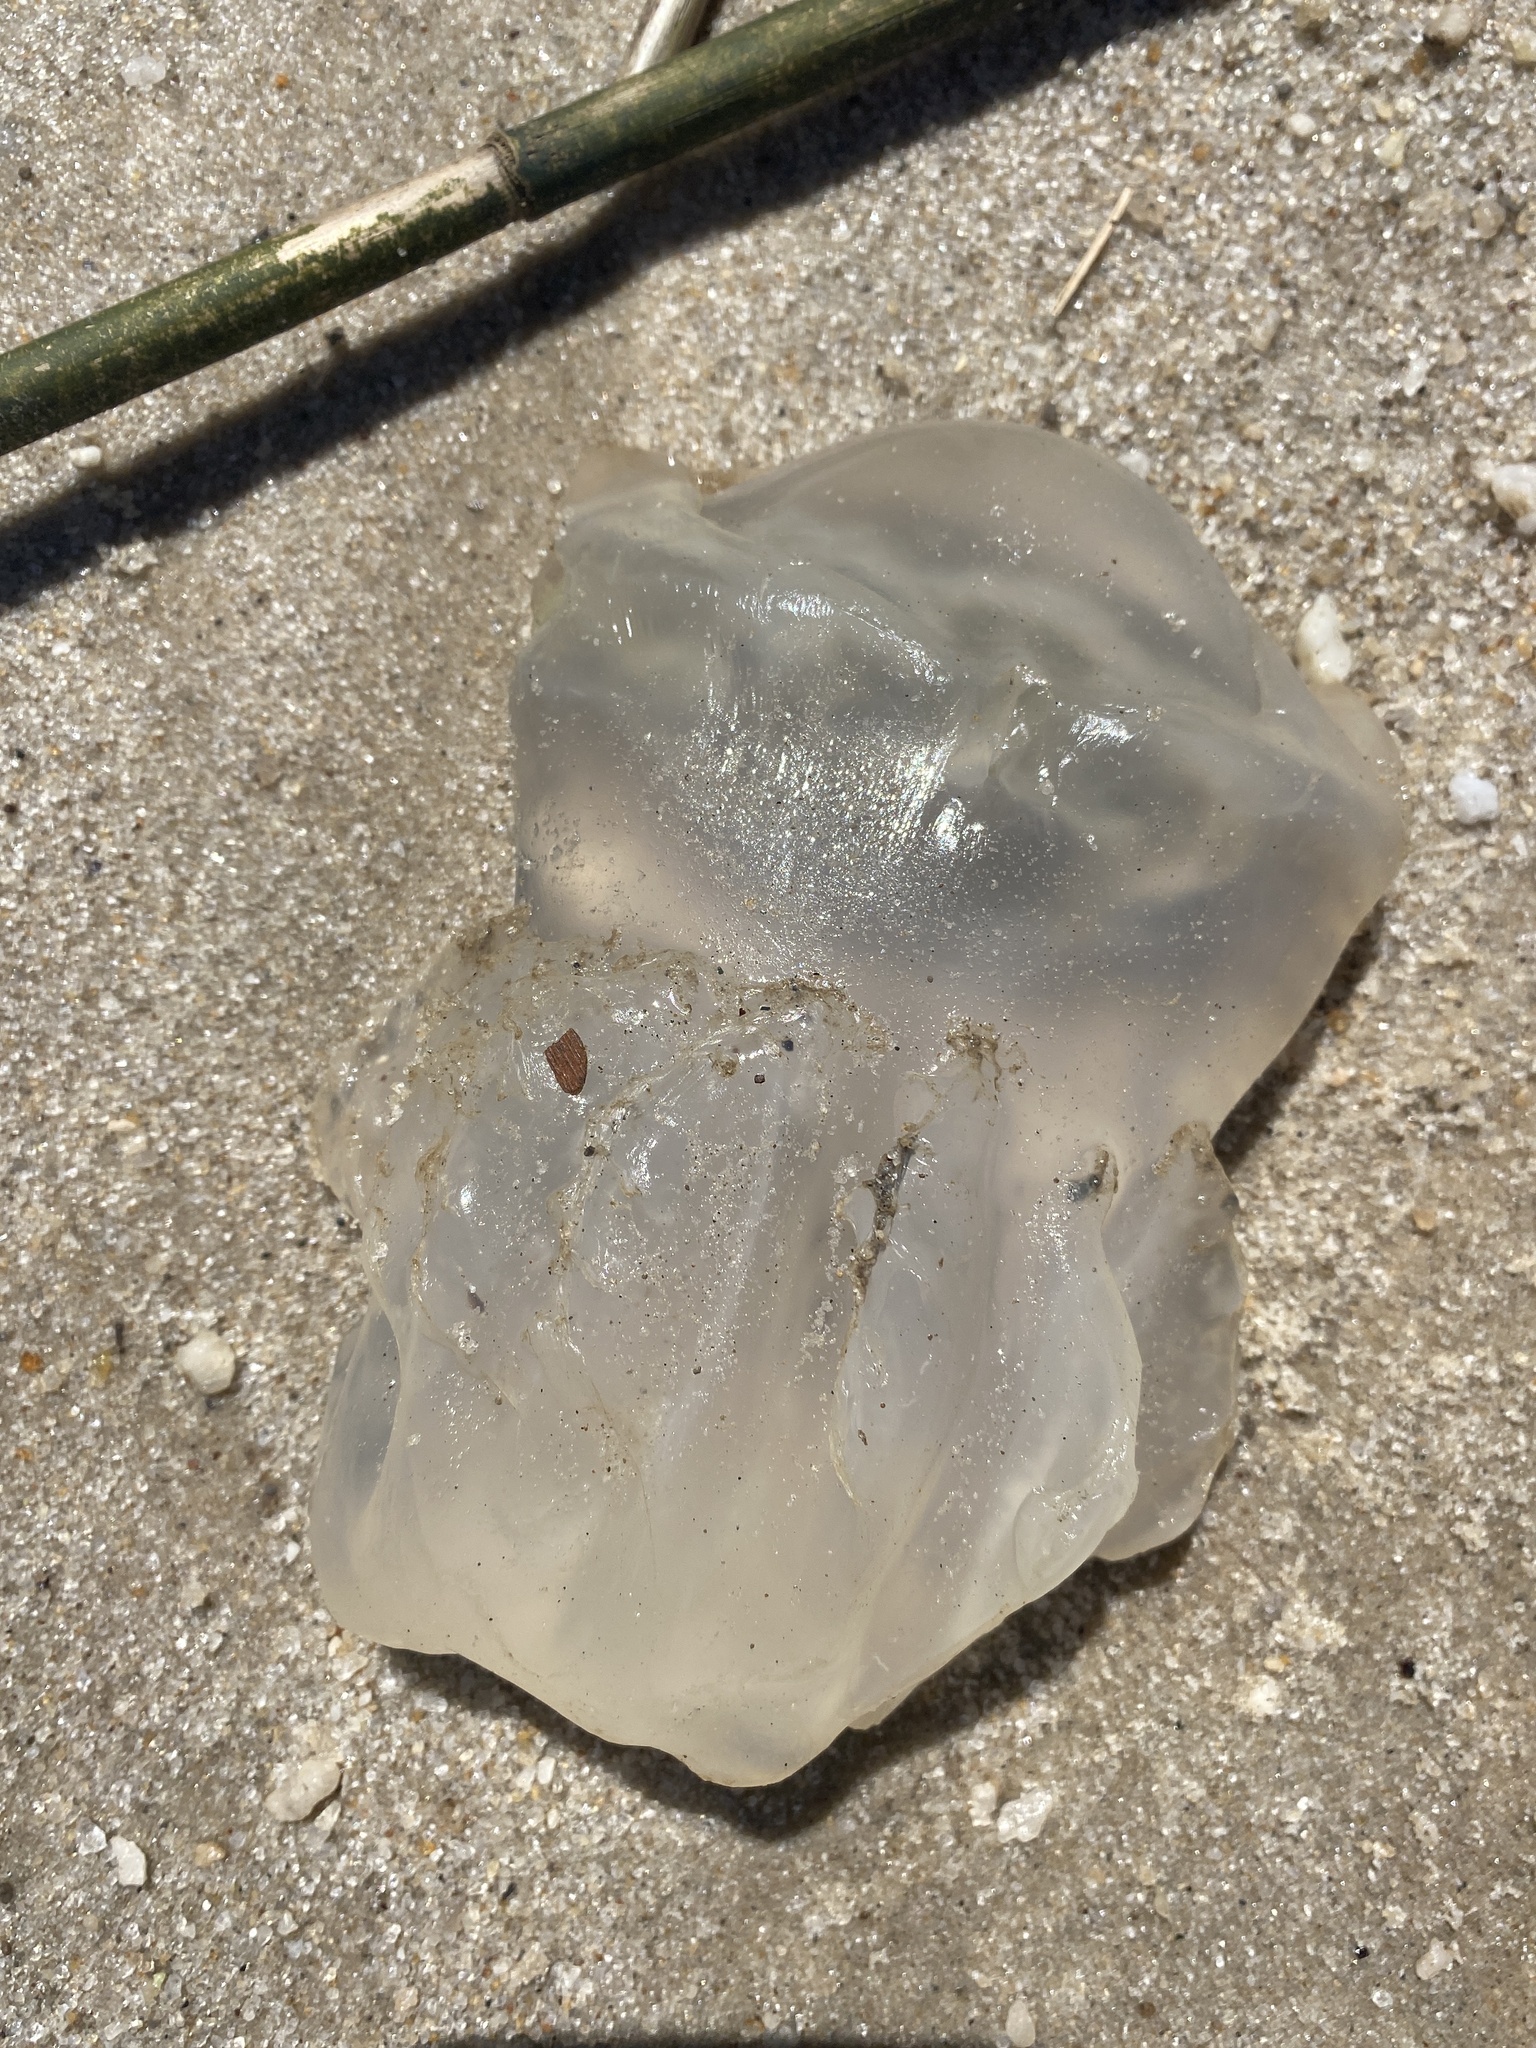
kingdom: Animalia
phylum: Cnidaria
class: Scyphozoa
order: Rhizostomeae
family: Stomolophidae
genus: Stomolophus
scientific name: Stomolophus meleagris
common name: Cabbagehead
